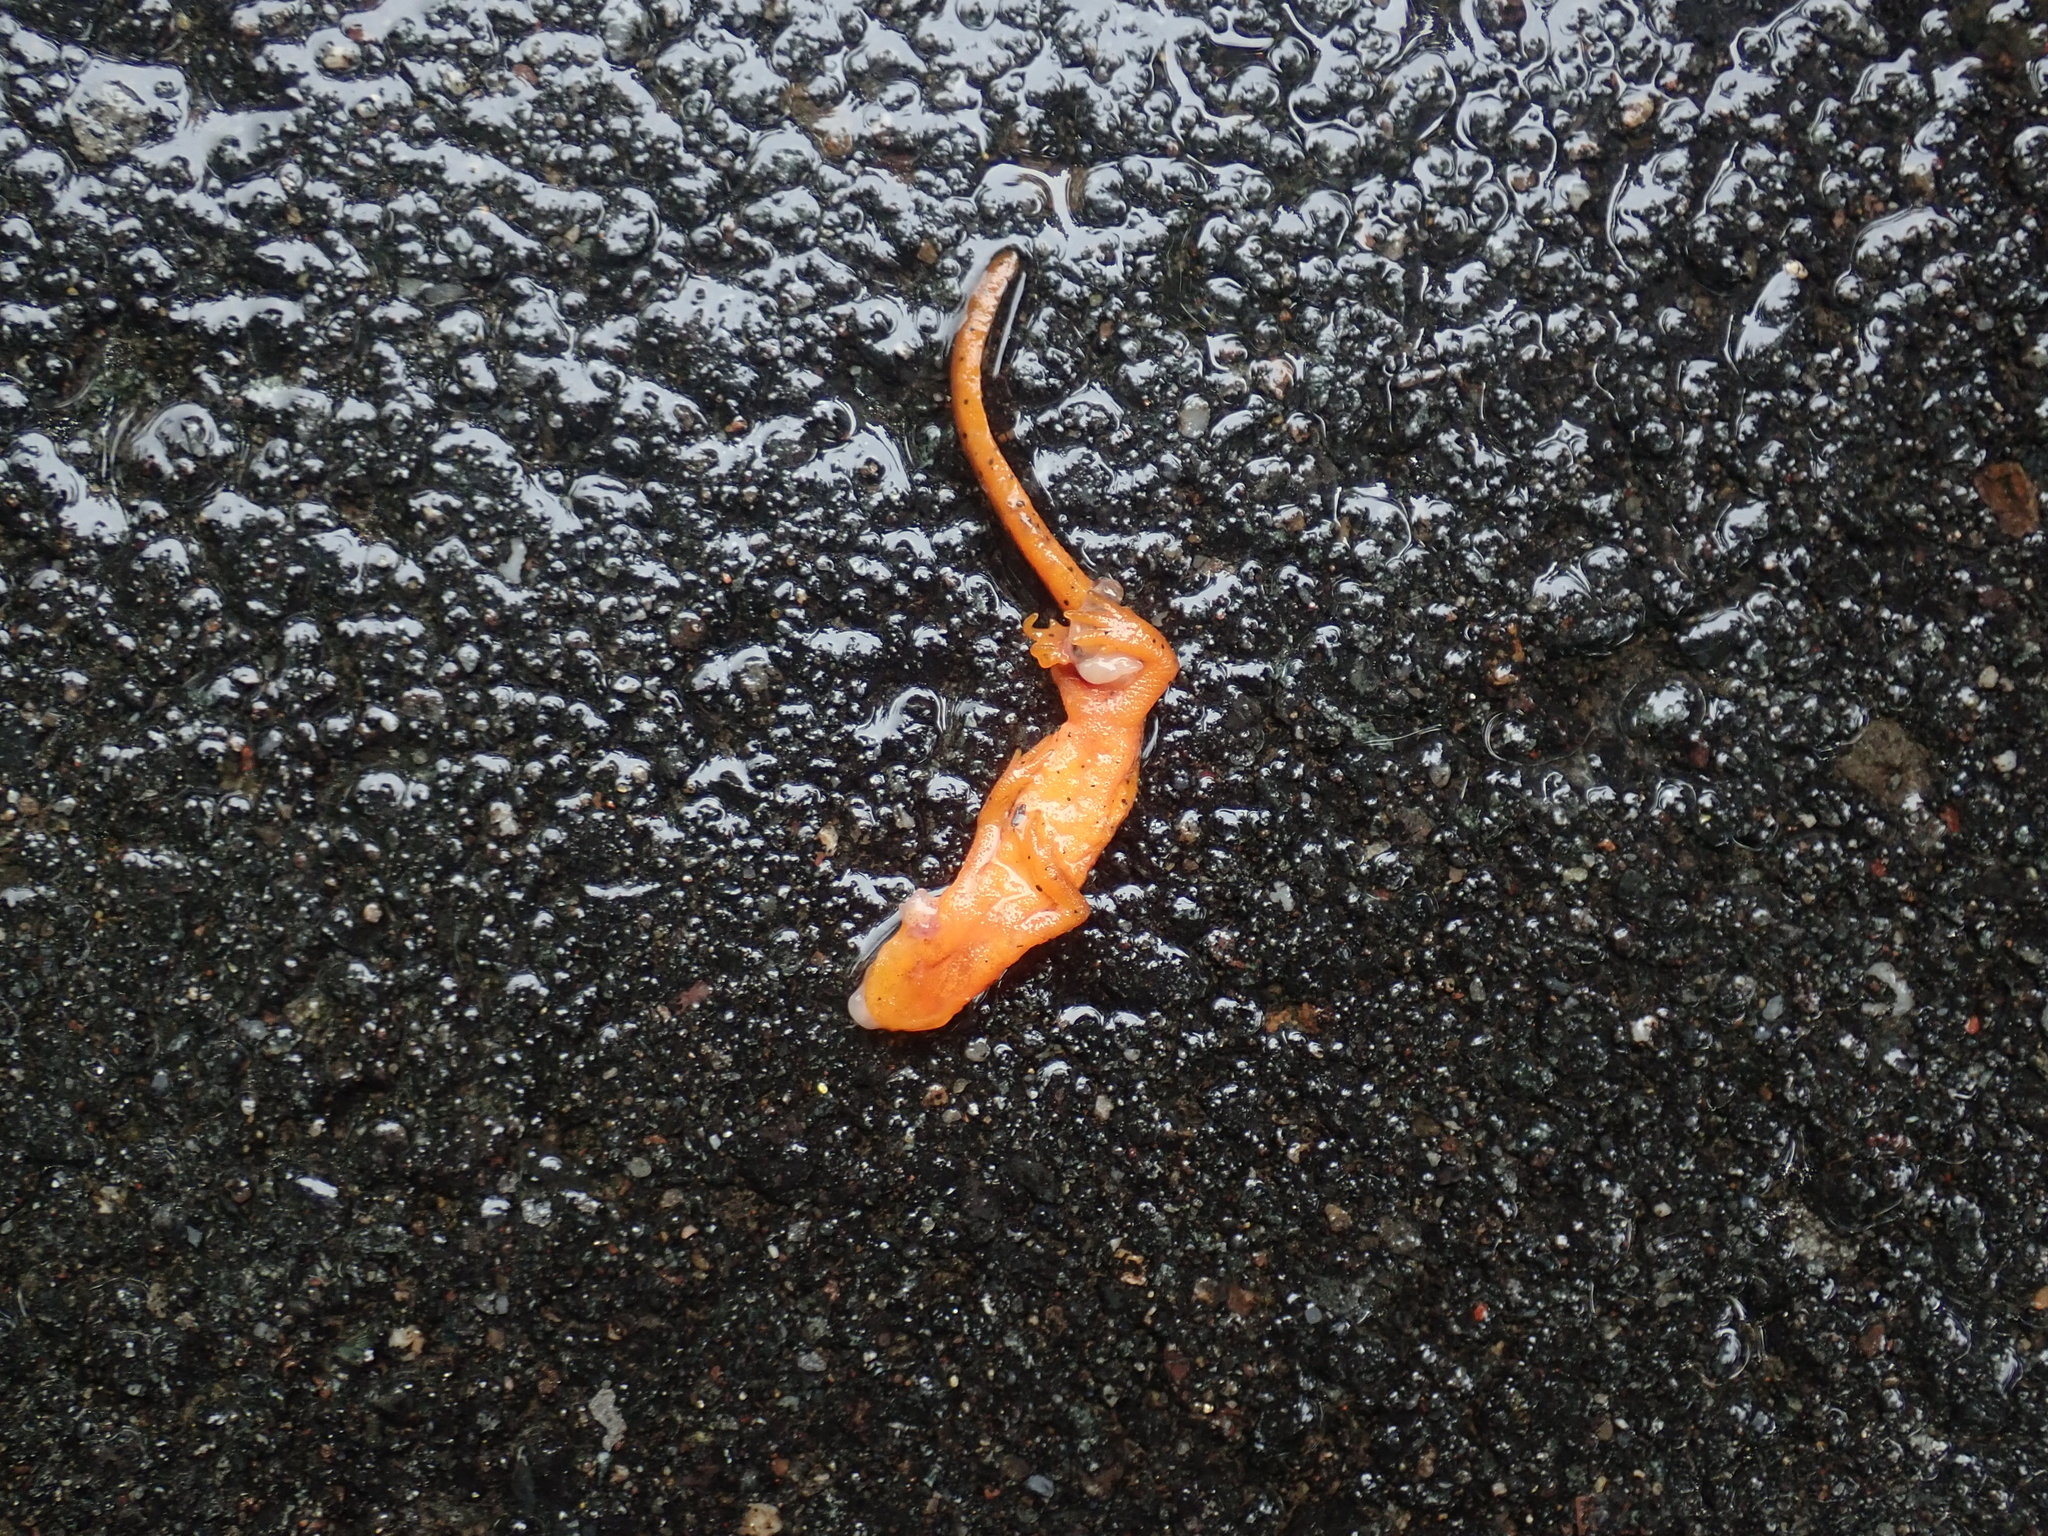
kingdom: Animalia
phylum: Chordata
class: Amphibia
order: Caudata
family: Salamandridae
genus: Notophthalmus
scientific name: Notophthalmus viridescens
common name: Eastern newt
